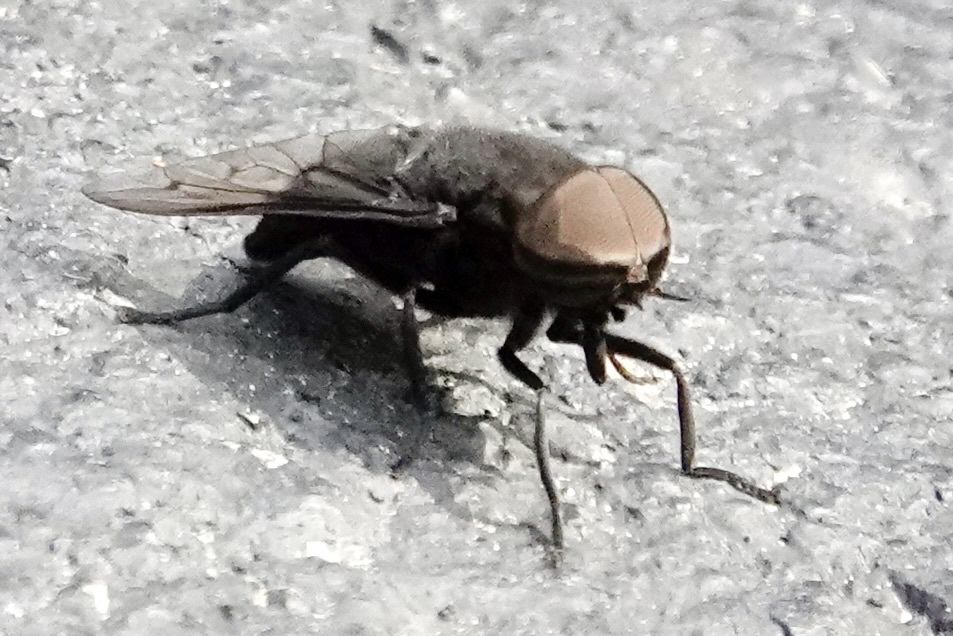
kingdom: Animalia
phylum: Arthropoda
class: Insecta
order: Diptera
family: Tabanidae
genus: Tabanus
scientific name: Tabanus atratus
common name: Black horse fly
